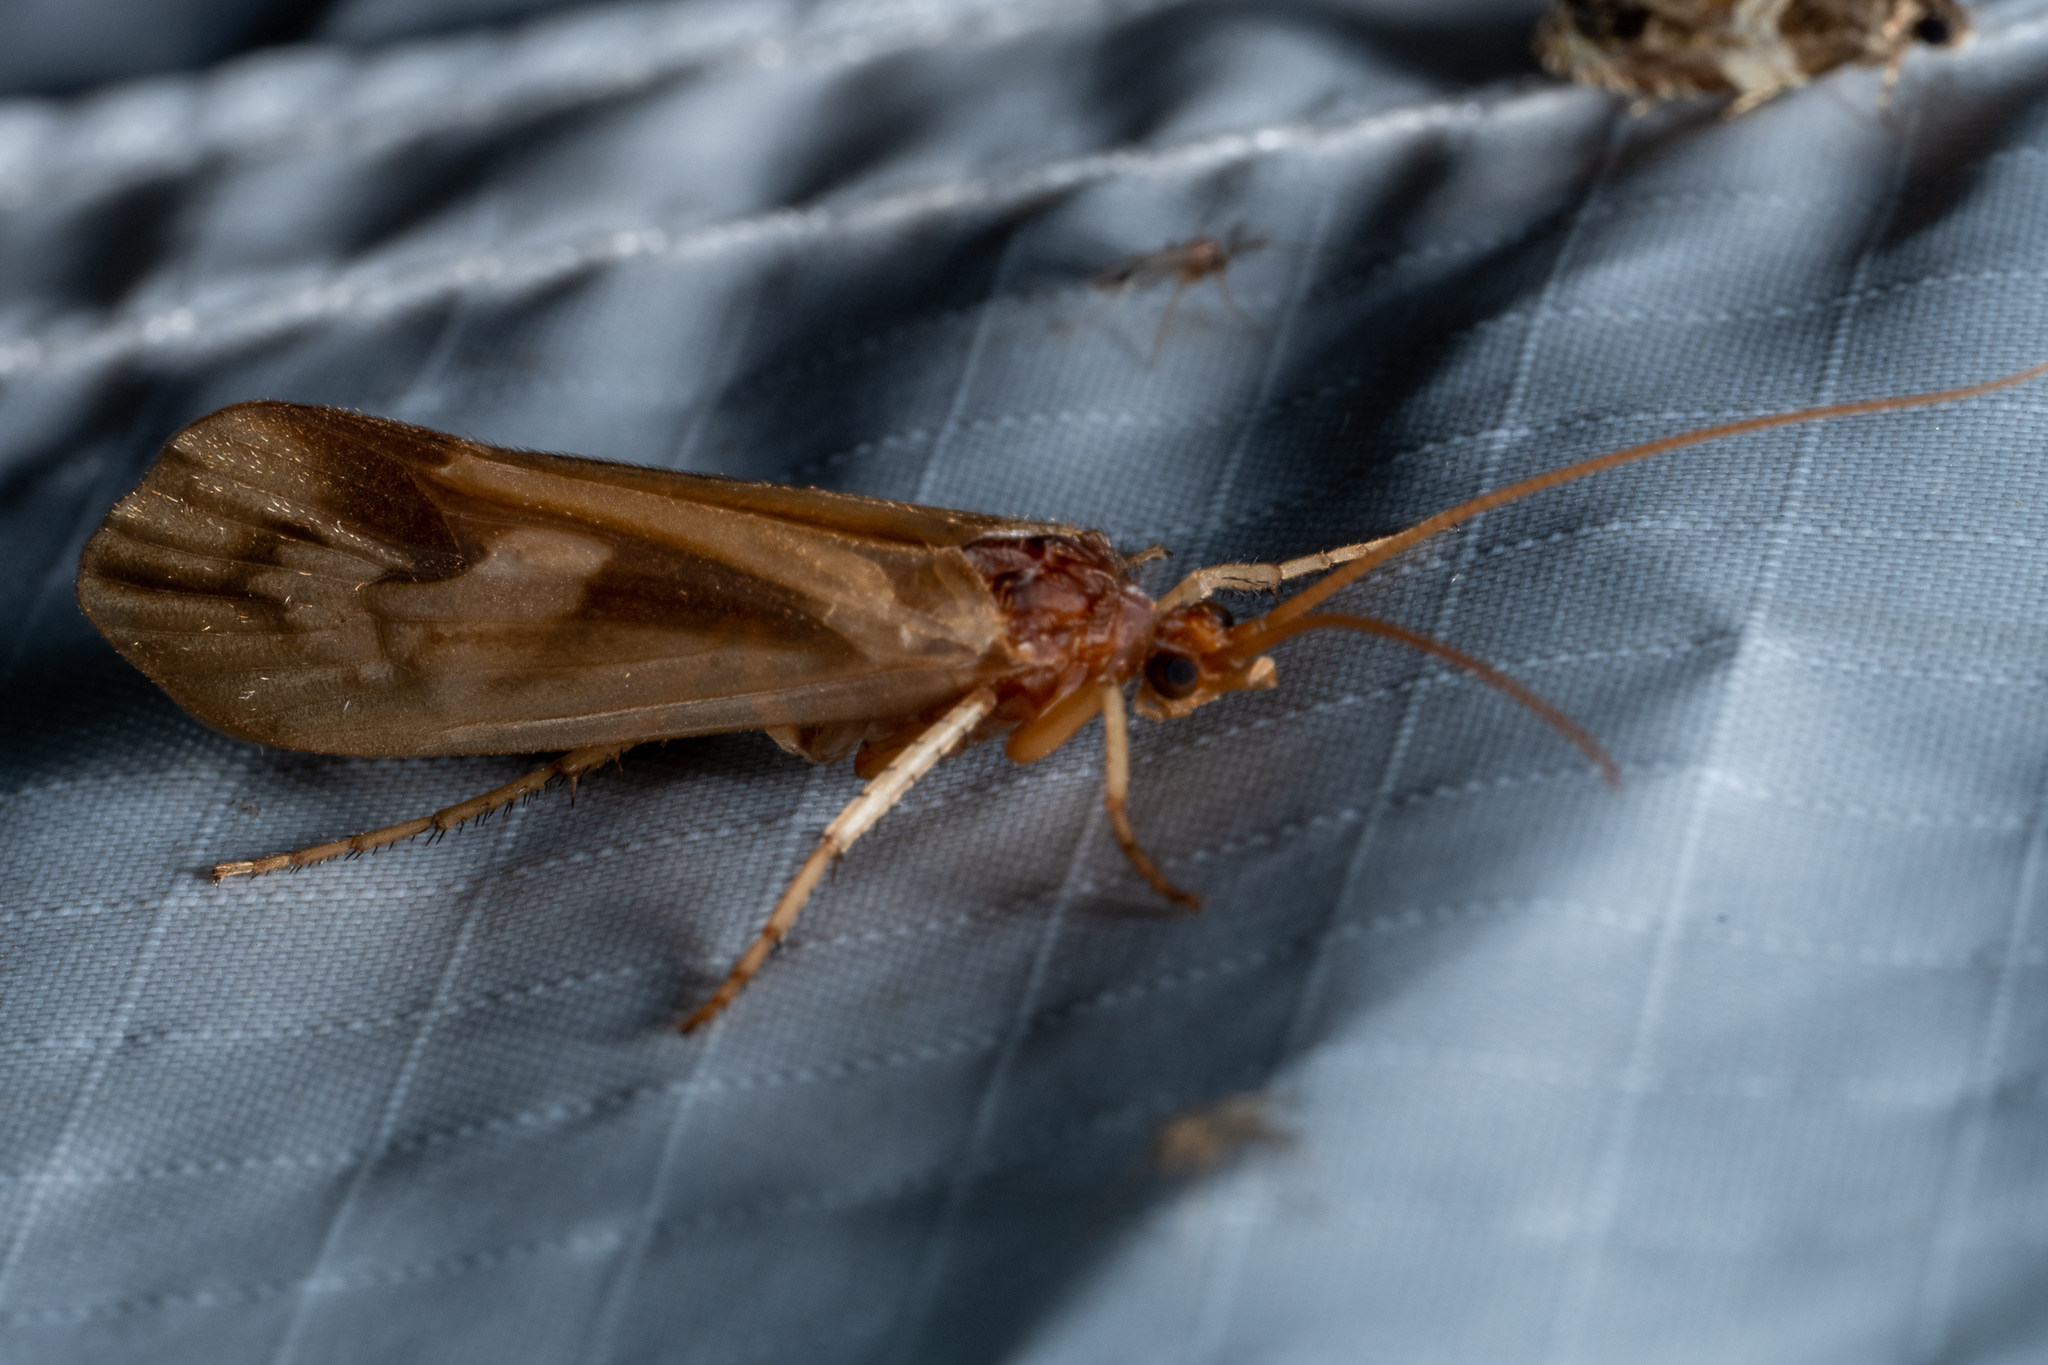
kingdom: Animalia
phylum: Arthropoda
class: Insecta
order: Trichoptera
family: Limnephilidae
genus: Platycentropus
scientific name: Platycentropus radiatus
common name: Chocolate-and-cream sedge
